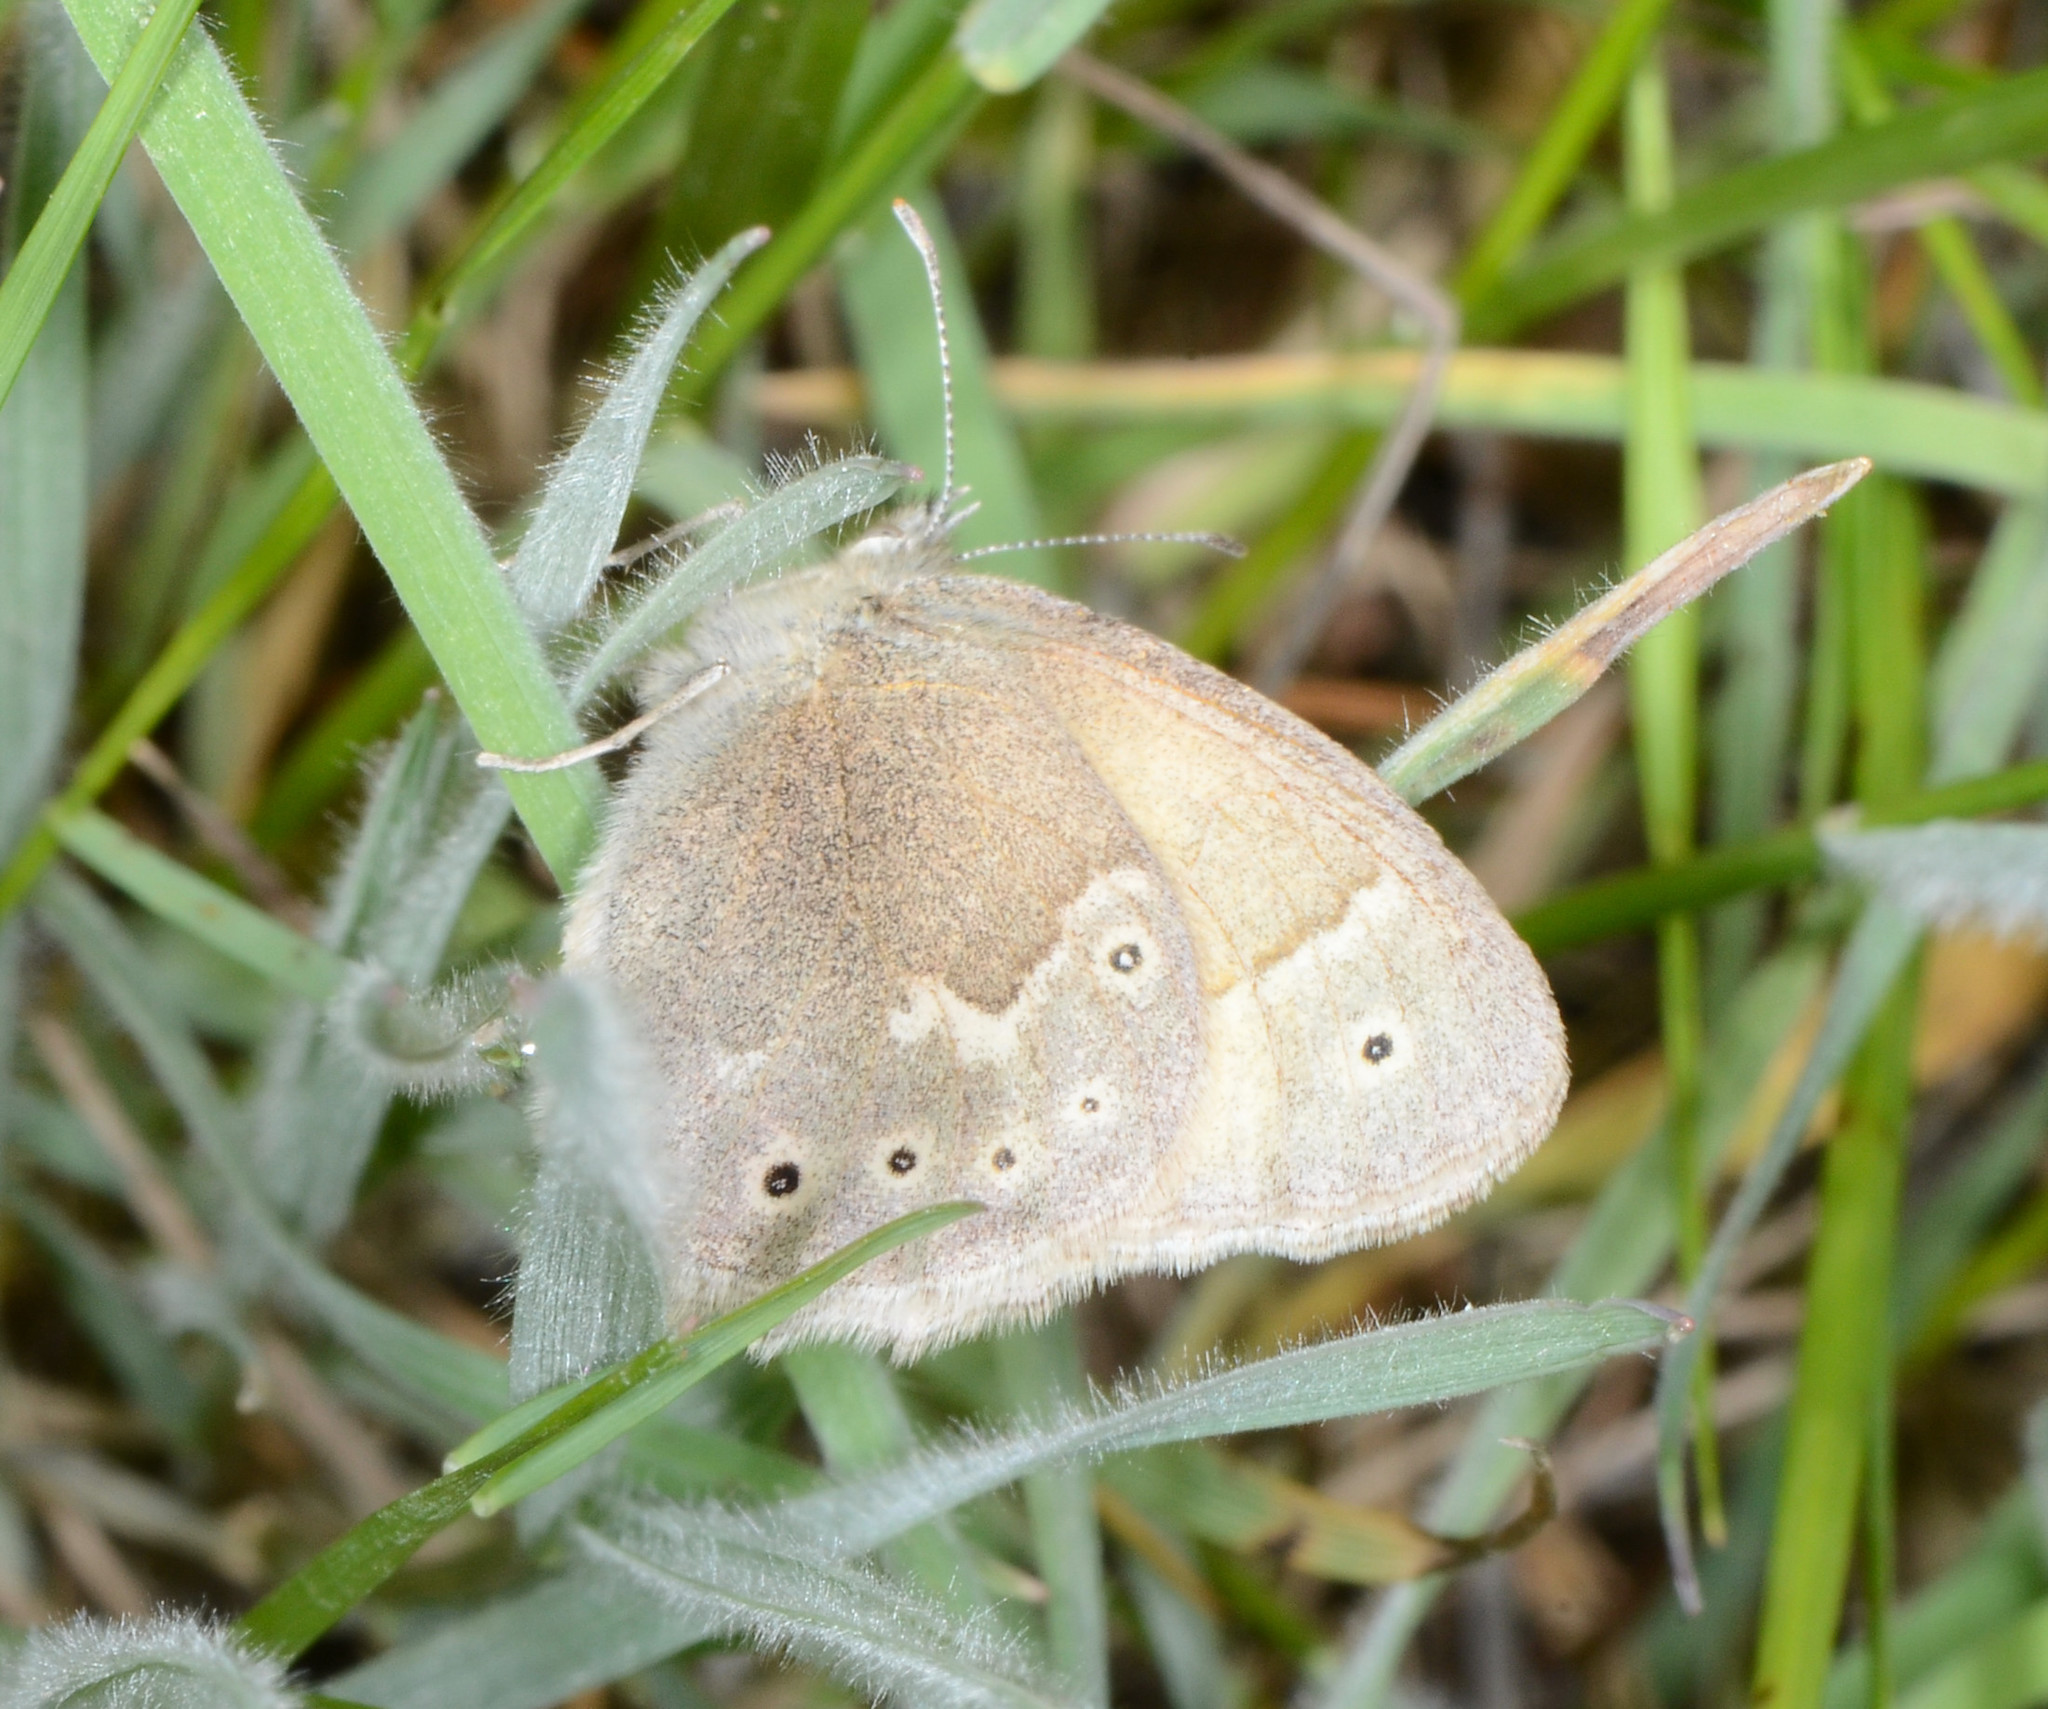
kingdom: Animalia
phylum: Arthropoda
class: Insecta
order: Lepidoptera
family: Nymphalidae
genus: Coenonympha
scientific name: Coenonympha california
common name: Common ringlet
